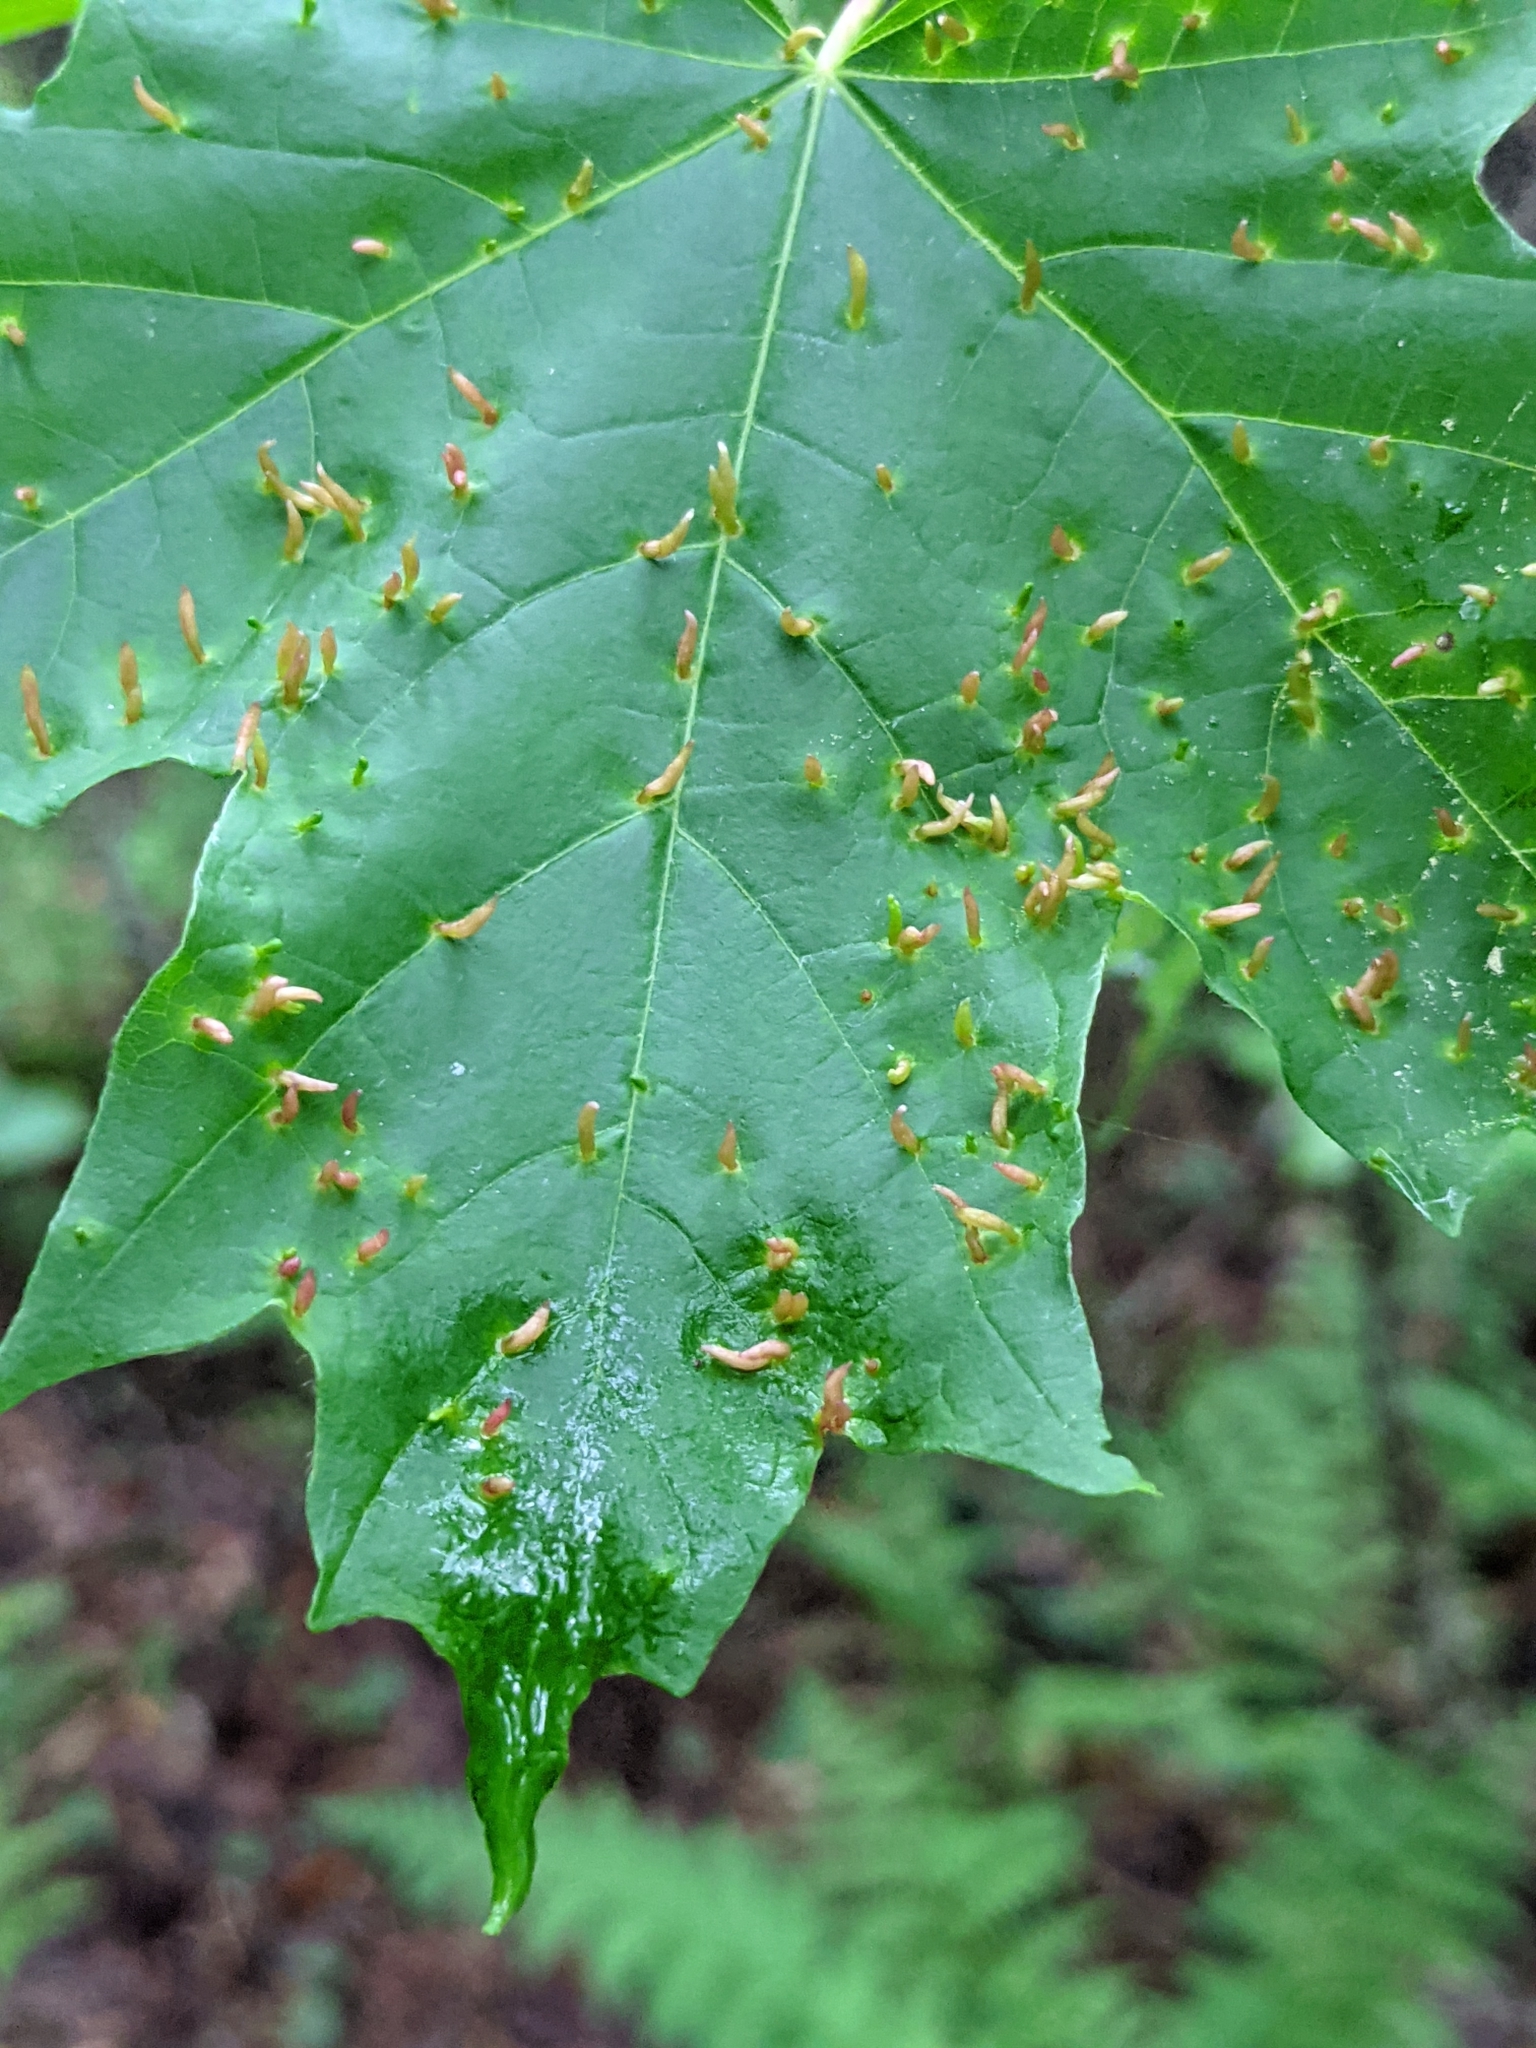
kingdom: Animalia
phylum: Arthropoda
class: Arachnida
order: Trombidiformes
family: Eriophyidae
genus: Vasates
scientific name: Vasates aceriscrumena
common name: Maple spindle gall mite
